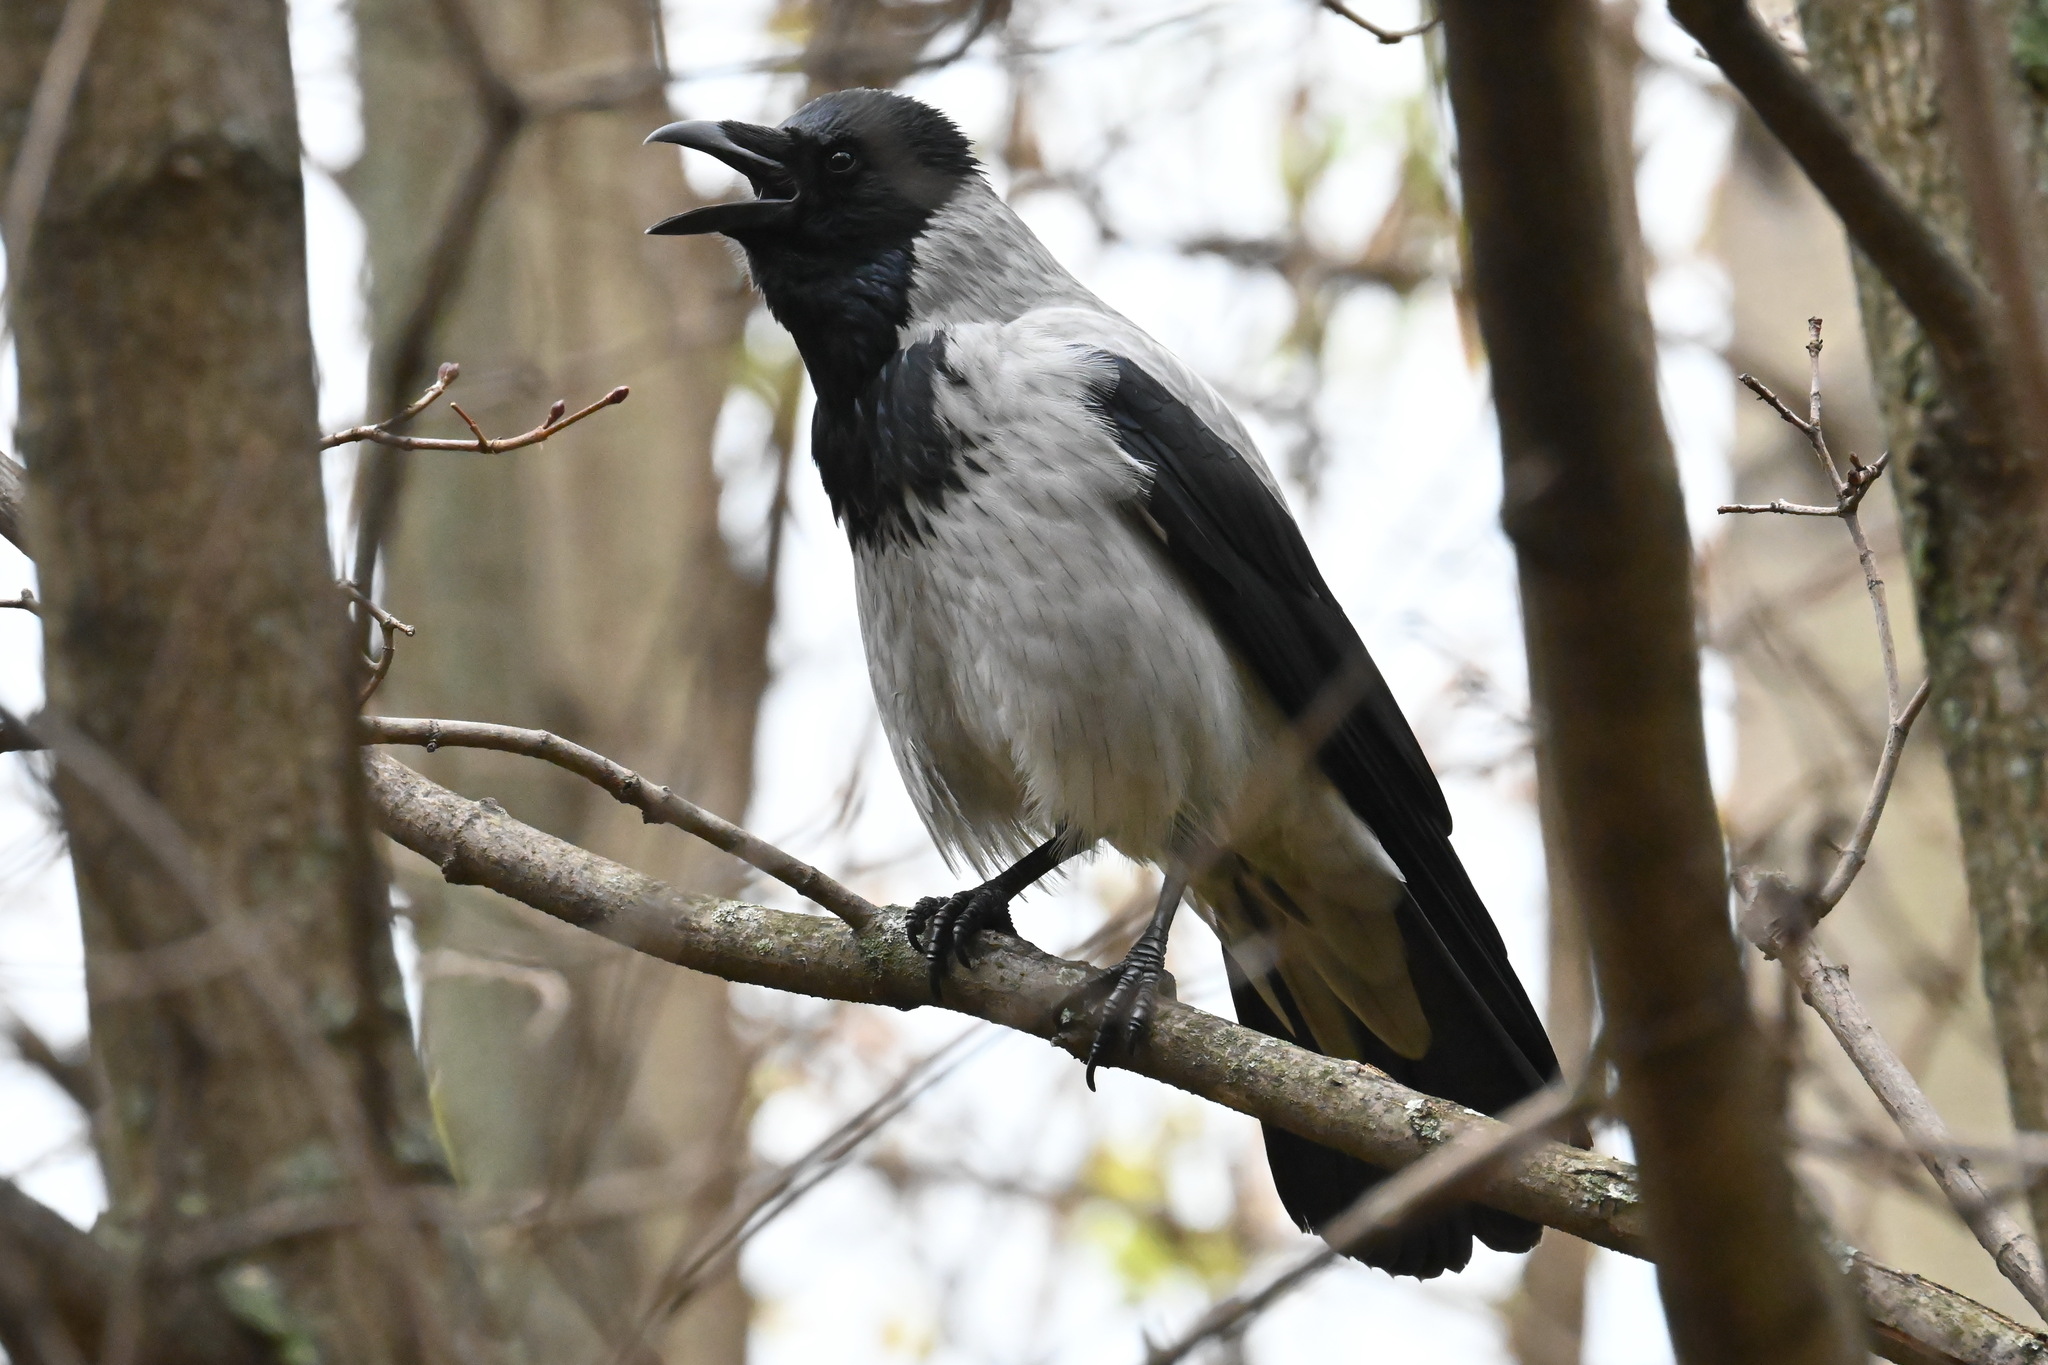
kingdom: Animalia
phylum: Chordata
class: Aves
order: Passeriformes
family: Corvidae
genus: Corvus
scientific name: Corvus cornix
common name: Hooded crow
